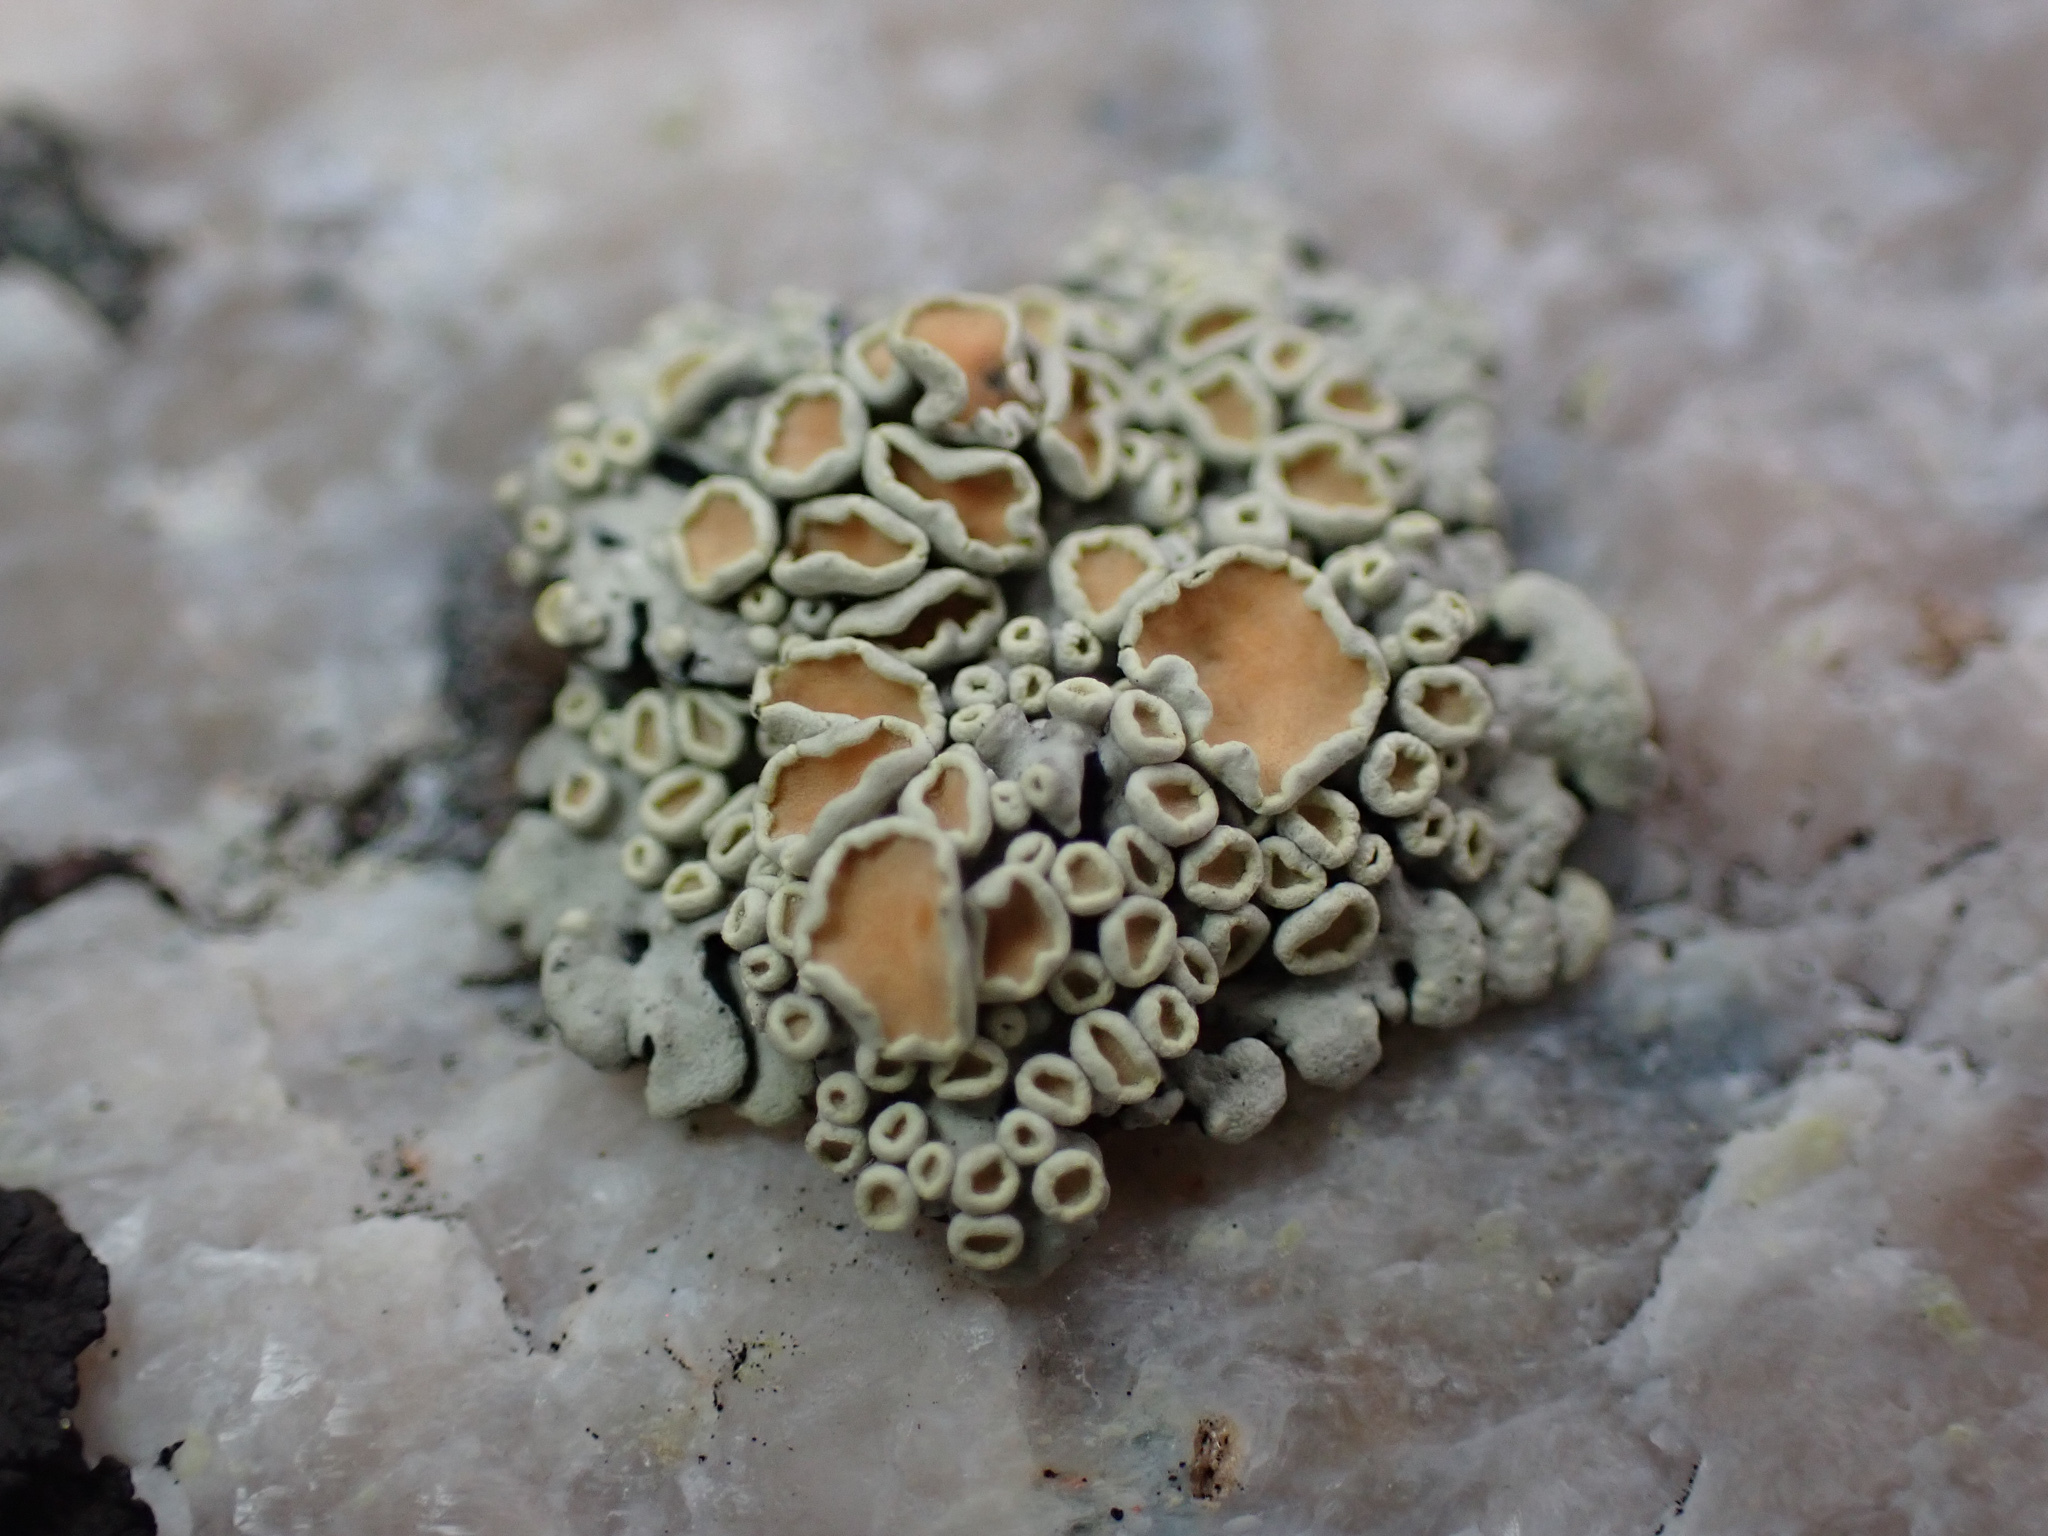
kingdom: Fungi
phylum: Ascomycota
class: Lecanoromycetes
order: Lecanorales
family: Lecanoraceae
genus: Omphalodina
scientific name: Omphalodina chrysoleuca
